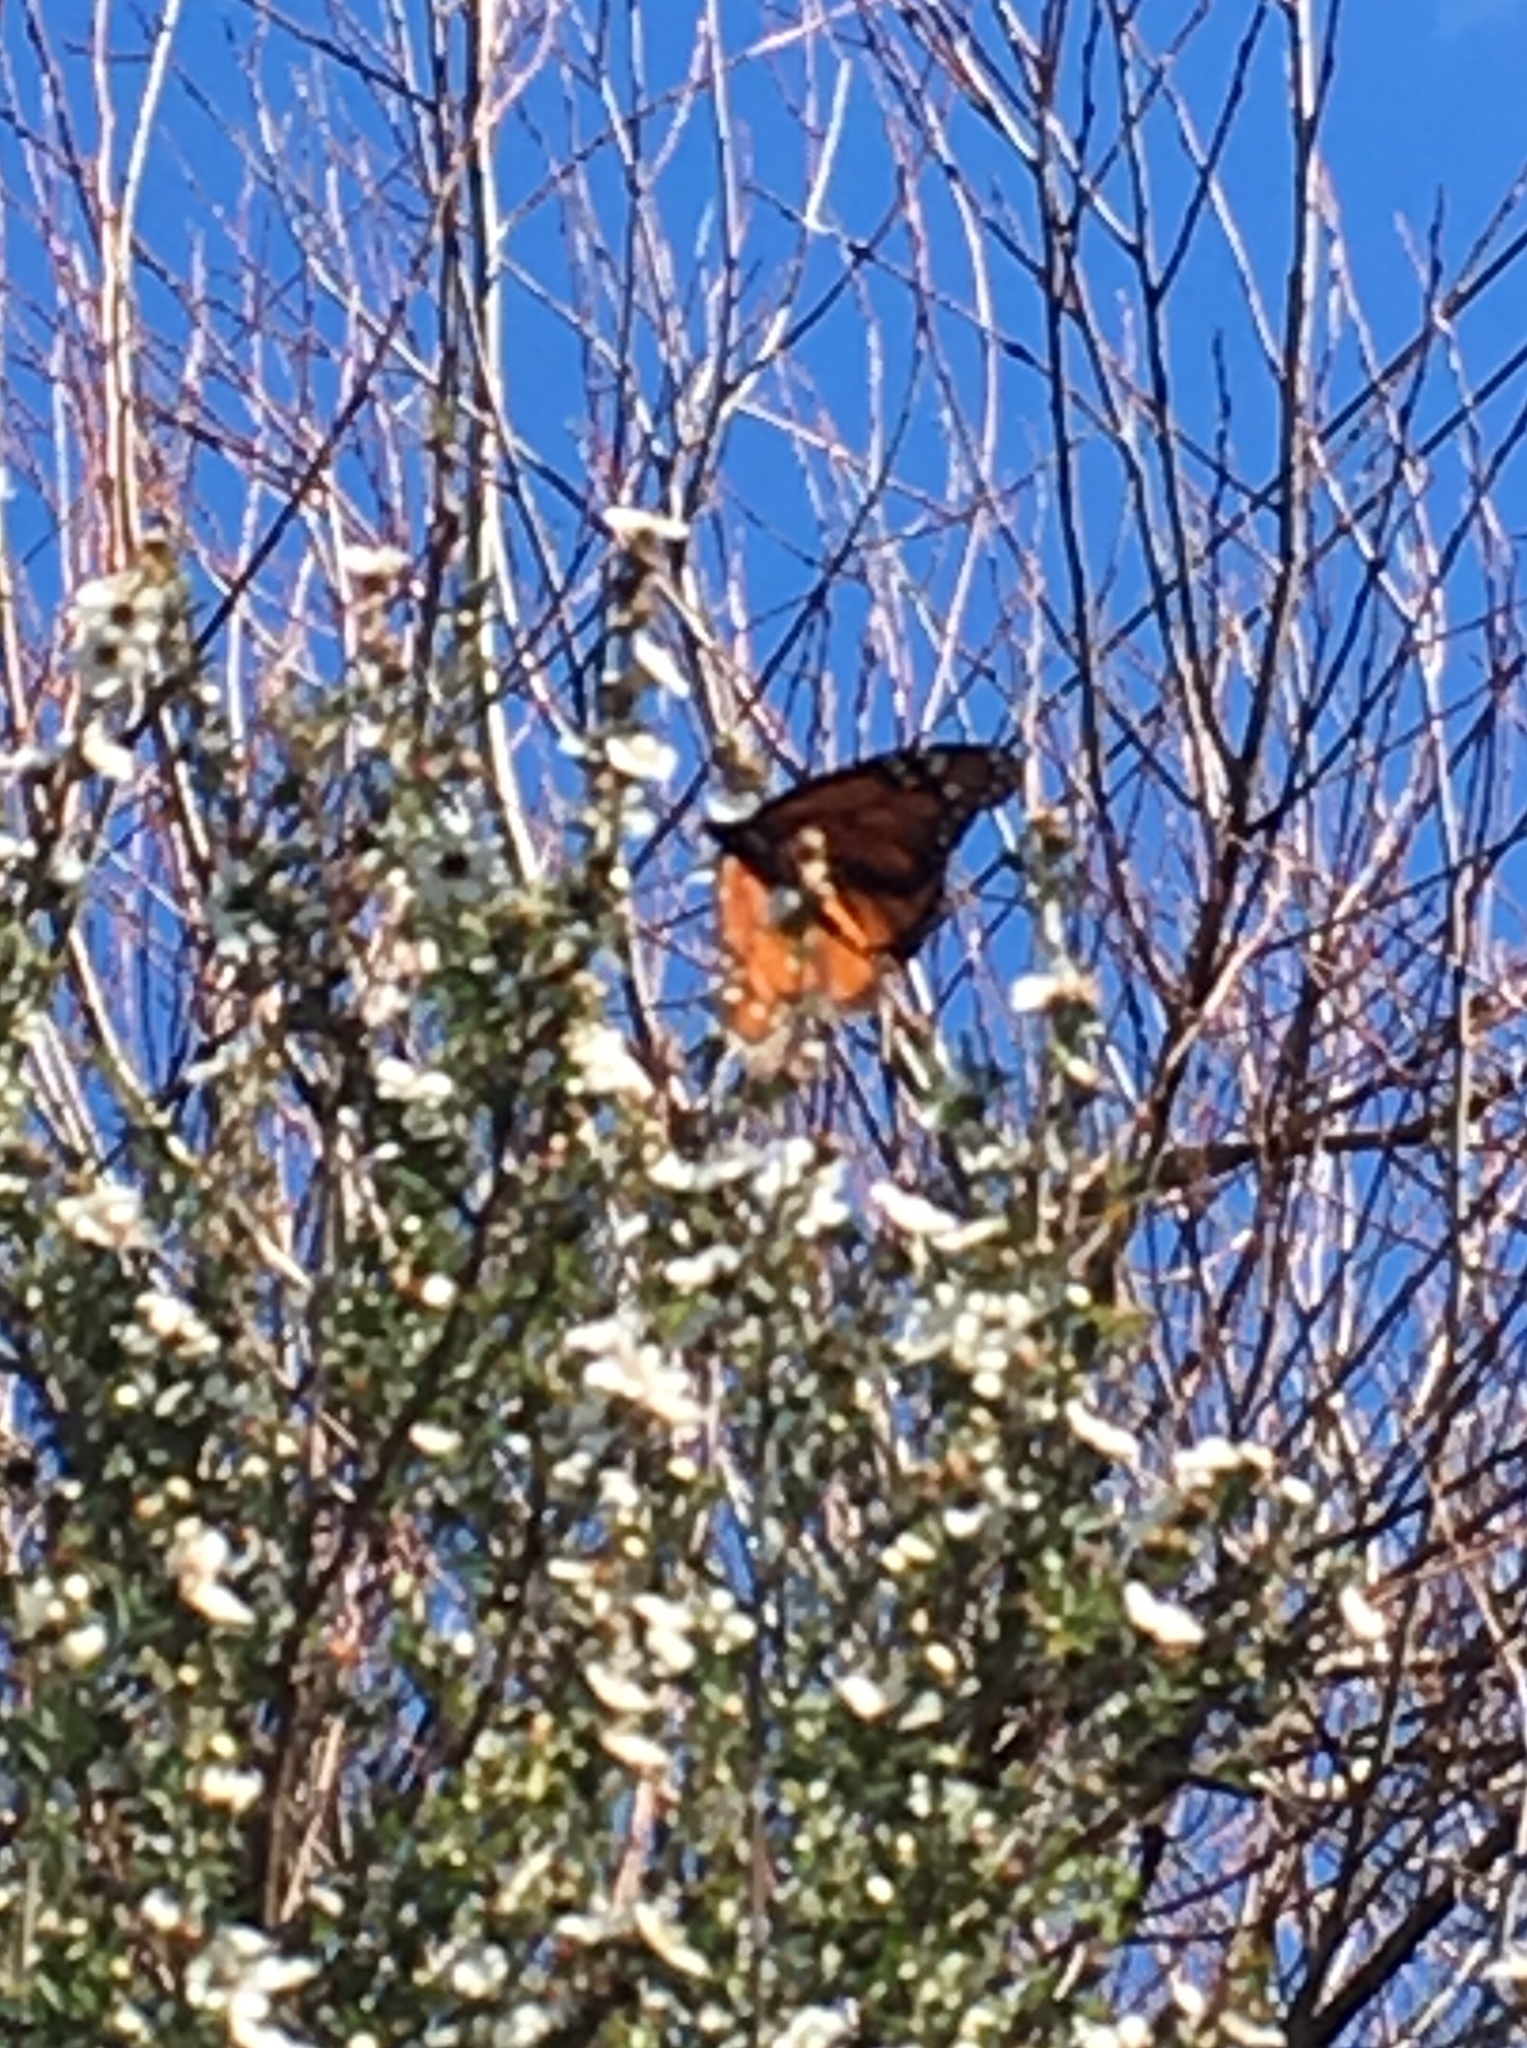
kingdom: Animalia
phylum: Arthropoda
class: Insecta
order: Lepidoptera
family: Nymphalidae
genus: Danaus
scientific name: Danaus plexippus
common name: Monarch
